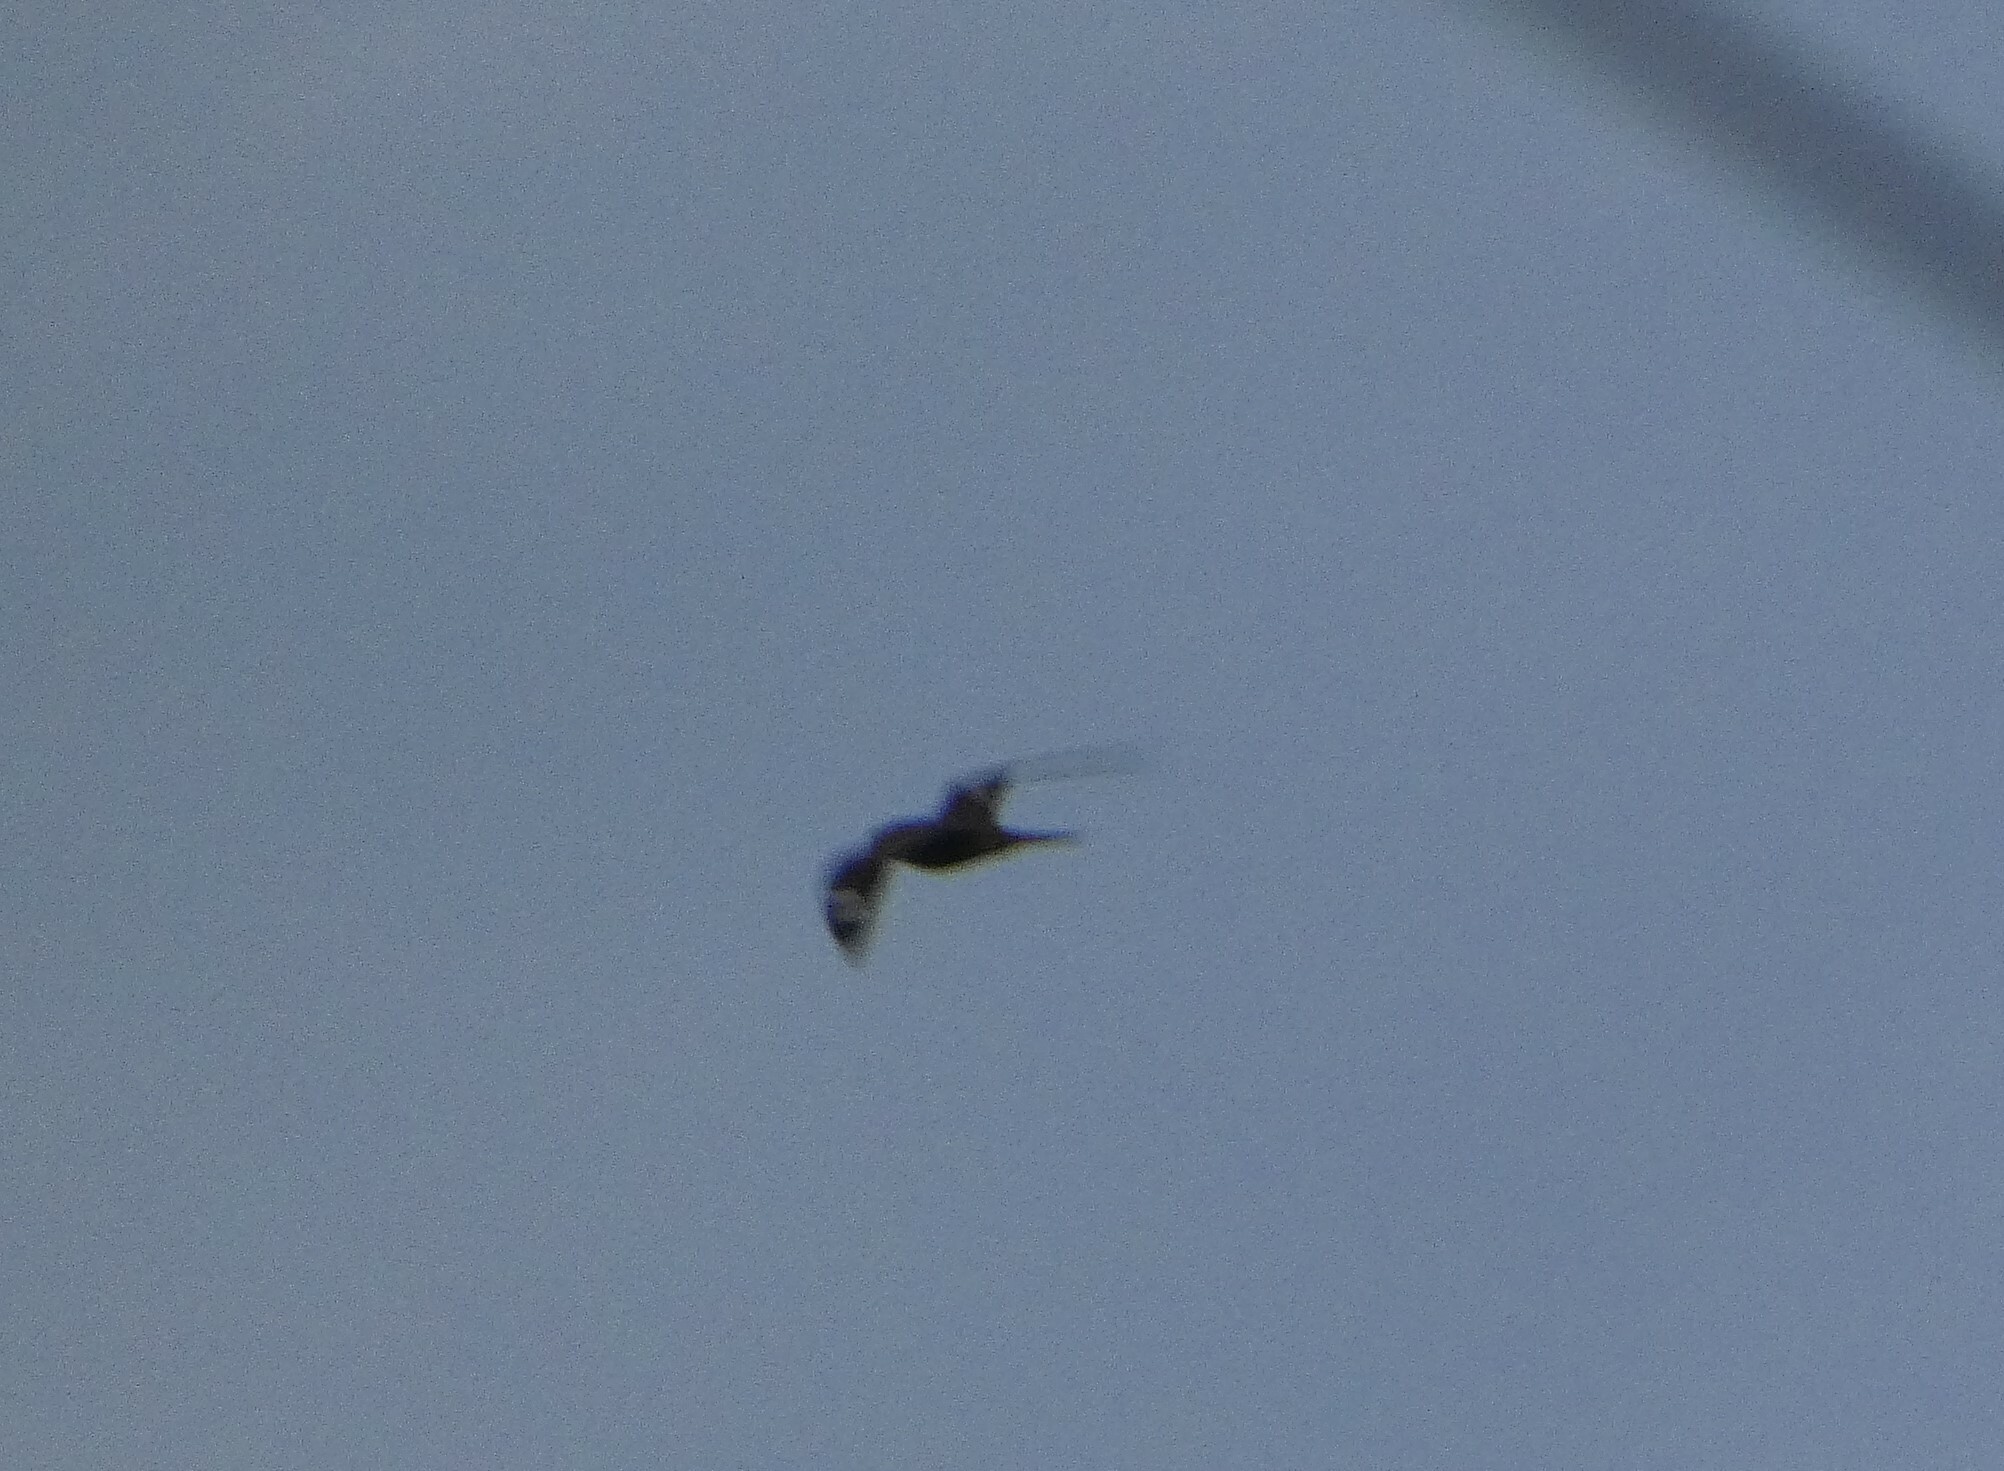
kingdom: Animalia
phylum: Chordata
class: Aves
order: Caprimulgiformes
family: Caprimulgidae
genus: Chordeiles
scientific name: Chordeiles minor
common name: Common nighthawk
